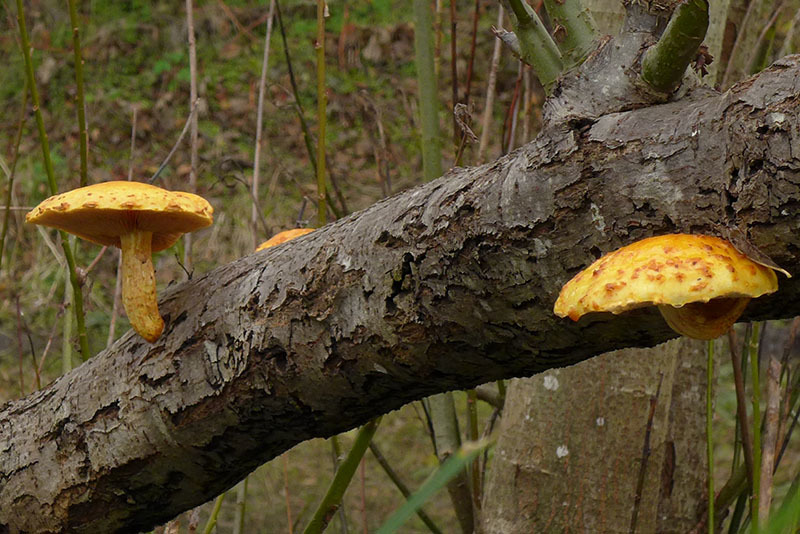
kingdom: Fungi
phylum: Basidiomycota
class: Agaricomycetes
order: Agaricales
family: Strophariaceae
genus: Pholiota
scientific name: Pholiota aurivella
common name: Golden scalycap
